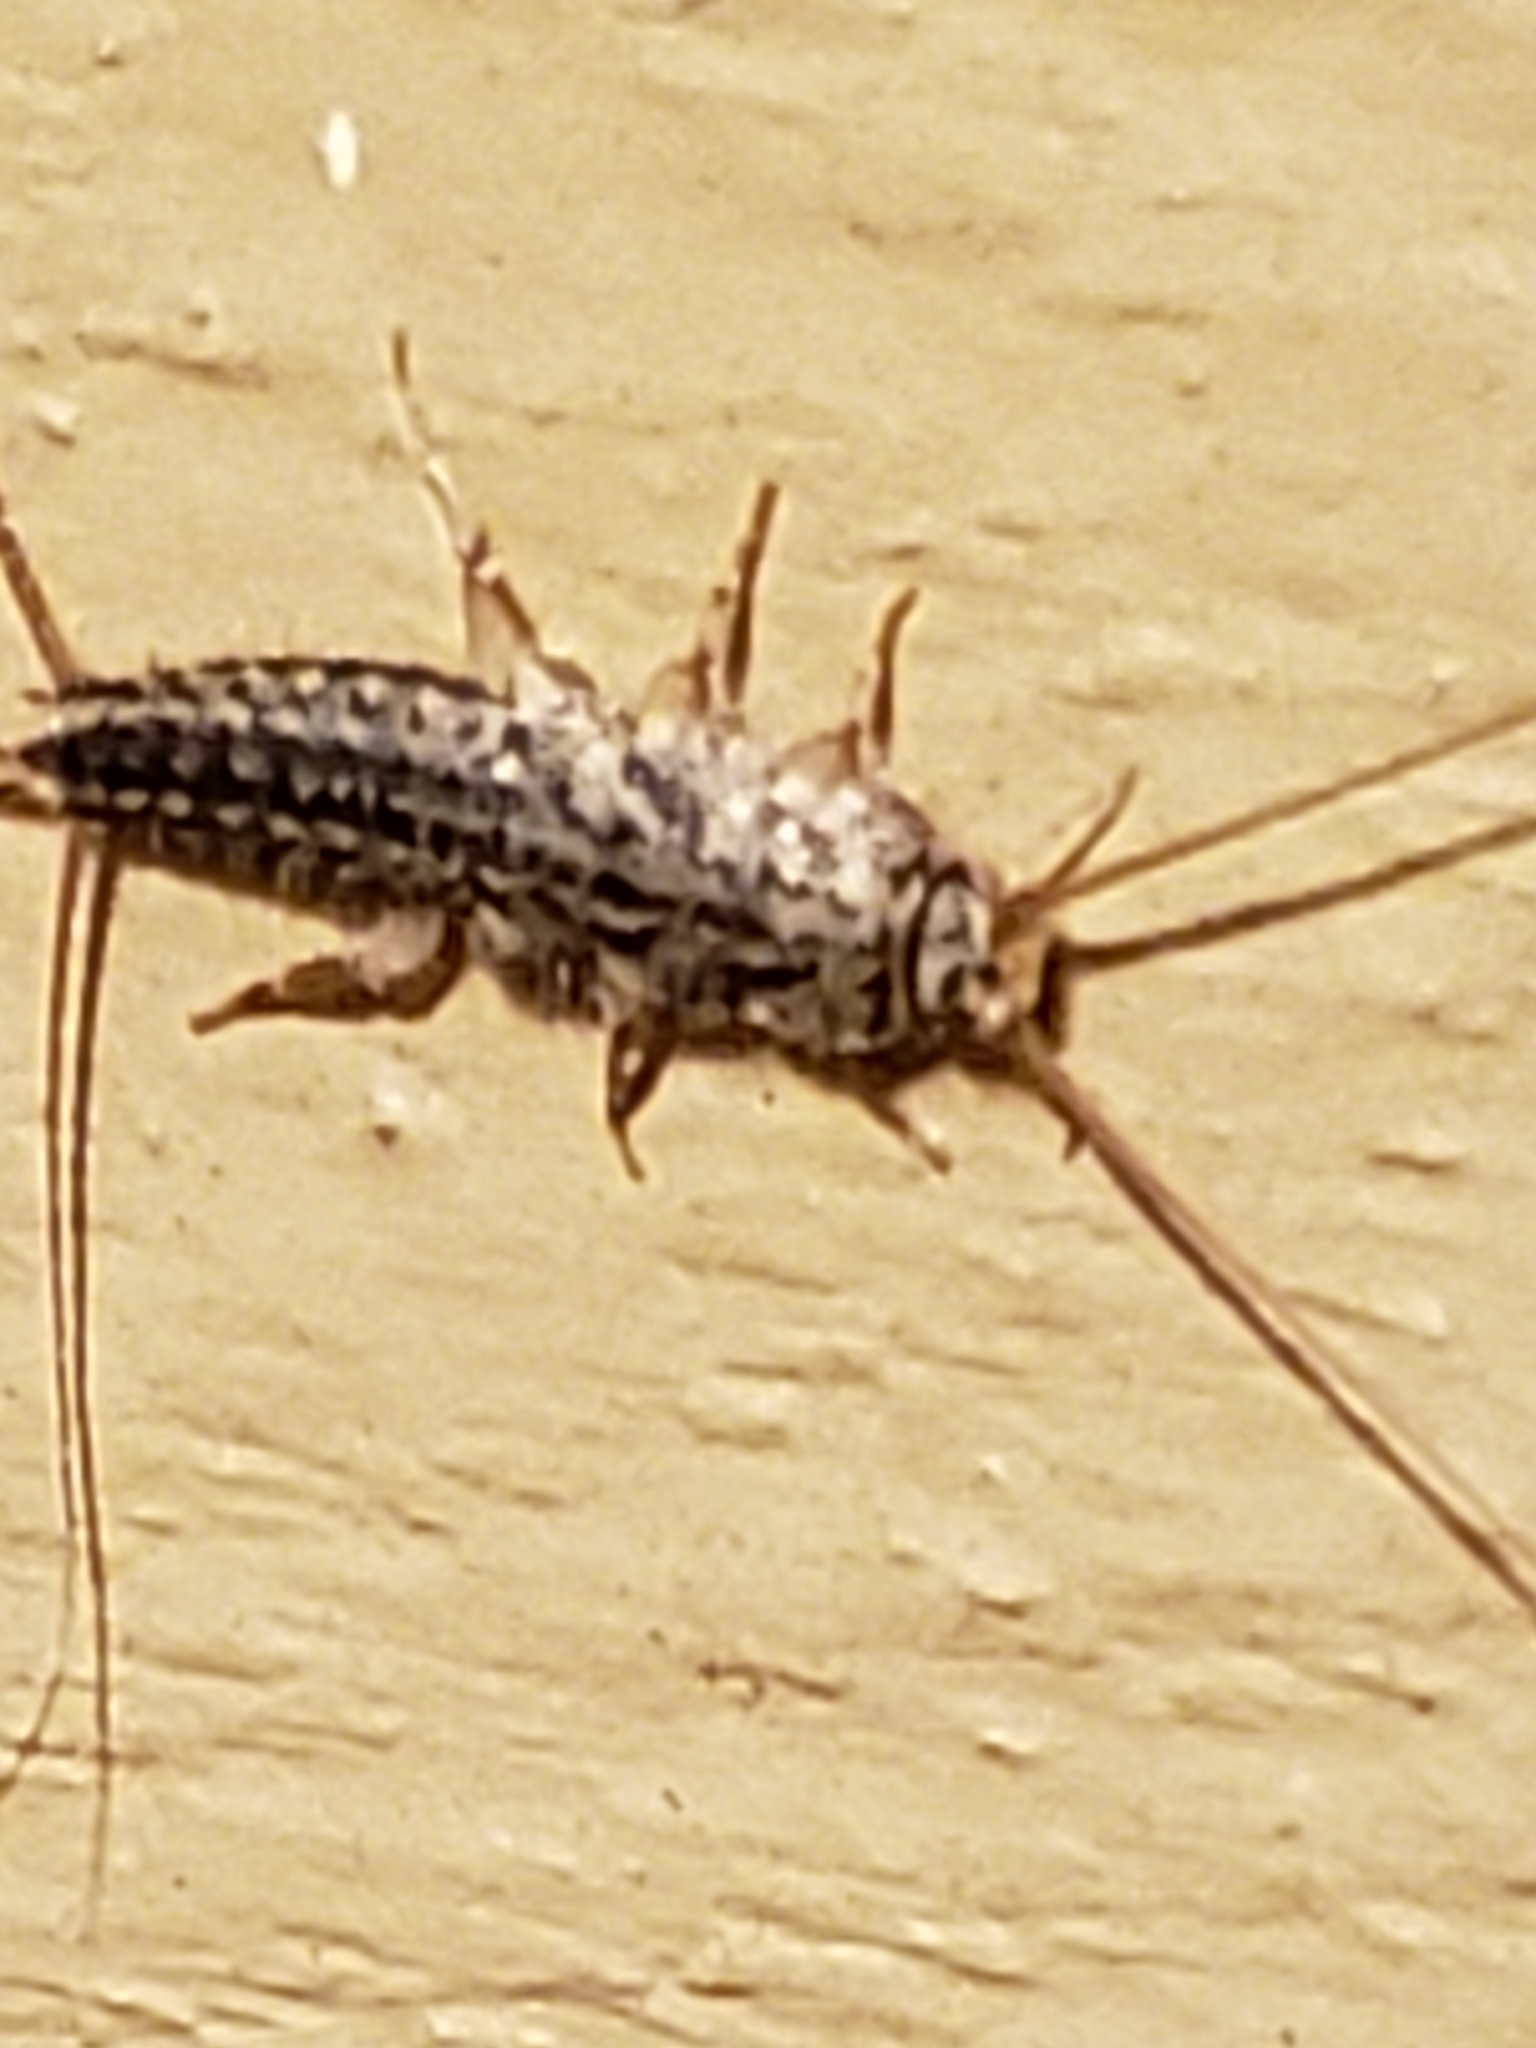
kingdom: Animalia
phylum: Arthropoda
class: Insecta
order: Zygentoma
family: Lepismatidae
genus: Ctenolepisma
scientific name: Ctenolepisma lineata
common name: Four-lined silverfish
